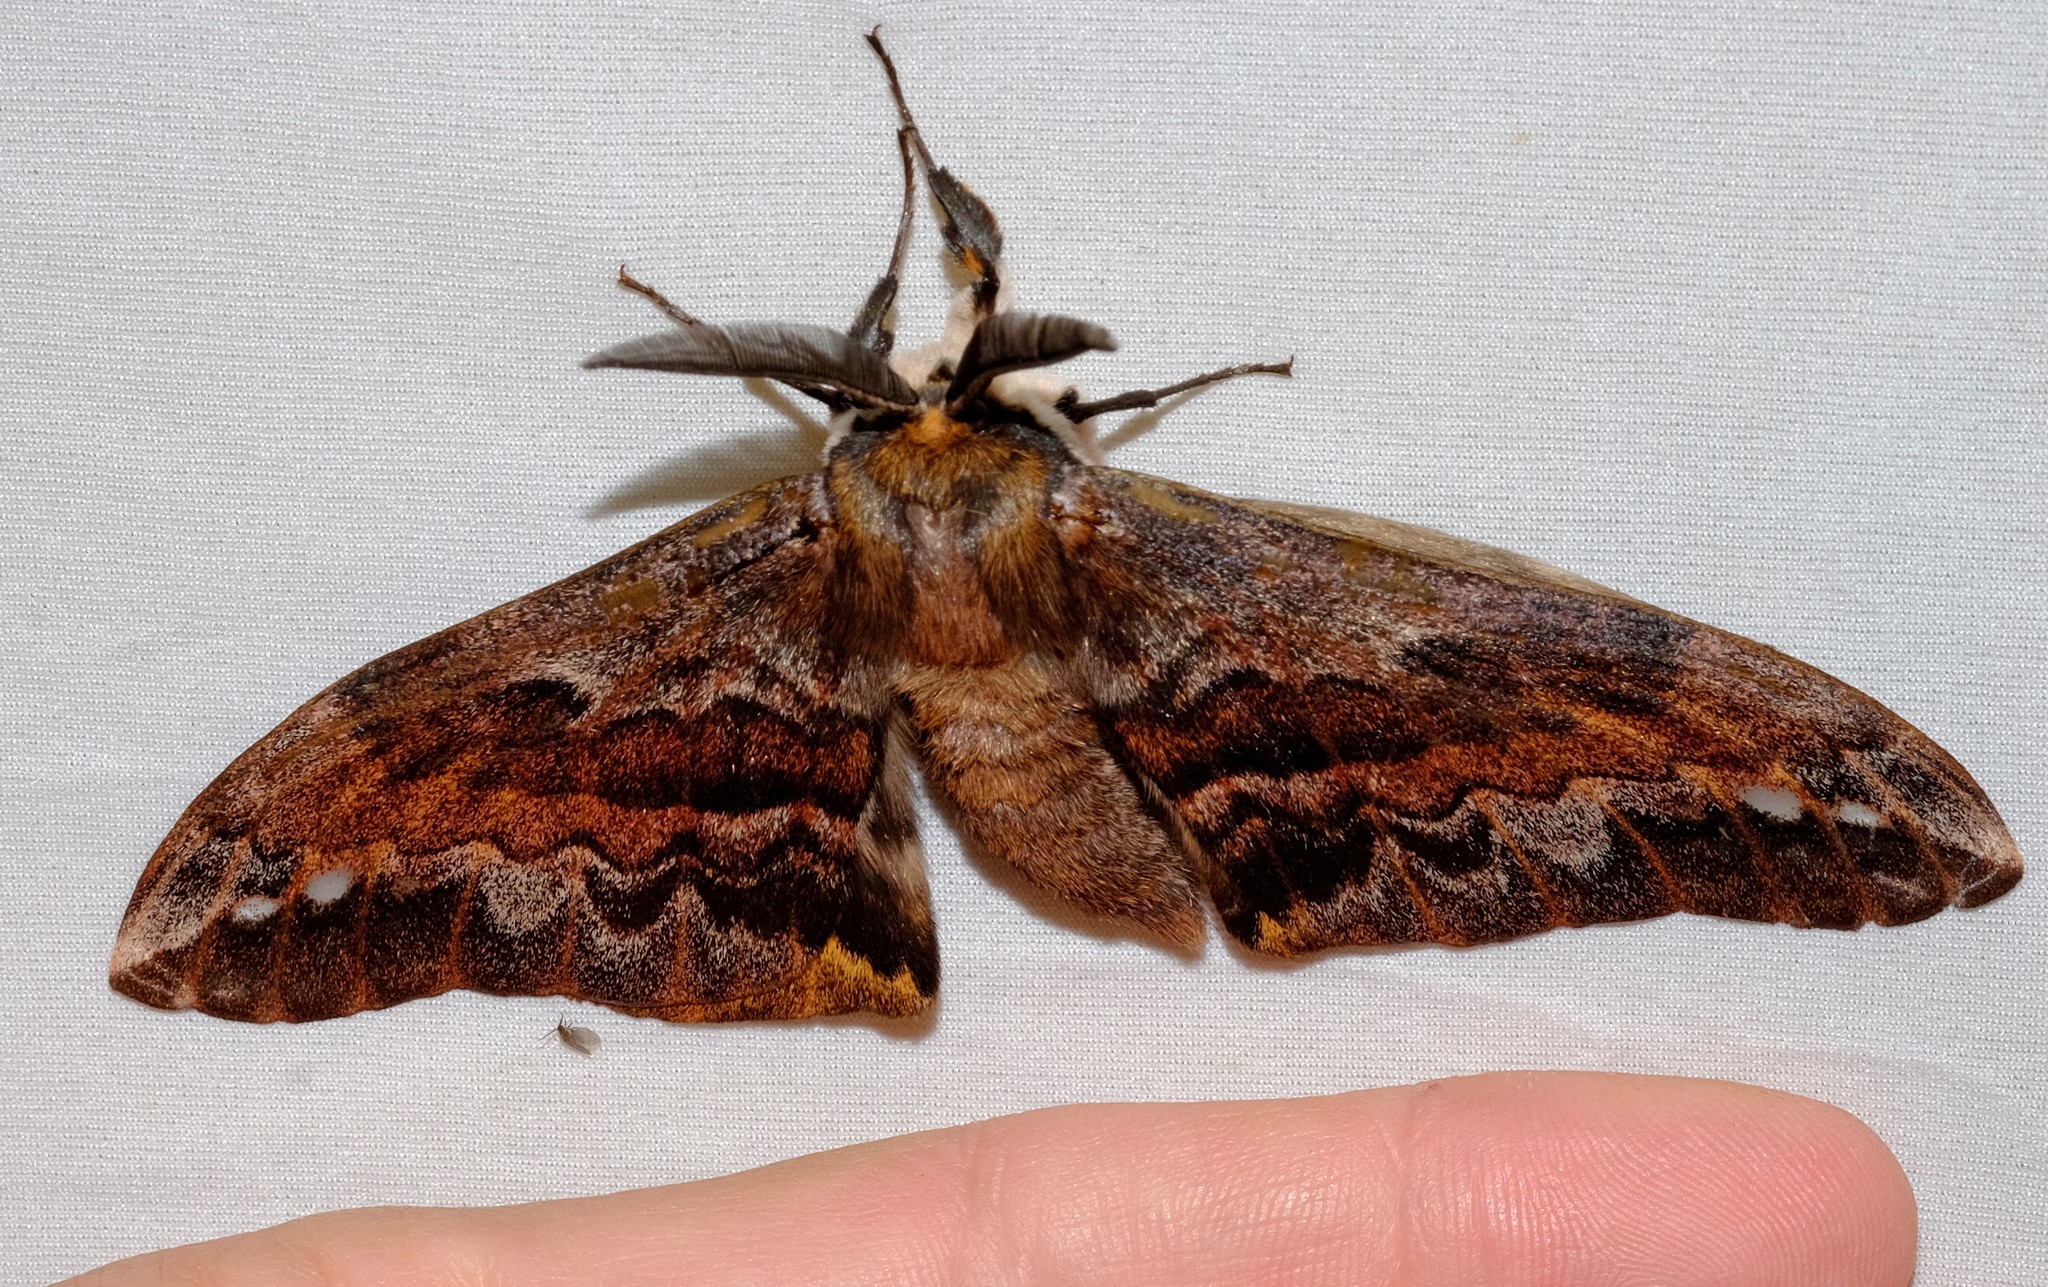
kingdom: Animalia
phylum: Arthropoda
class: Insecta
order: Lepidoptera
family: Anthelidae
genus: Chelepteryx
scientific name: Chelepteryx collesi
